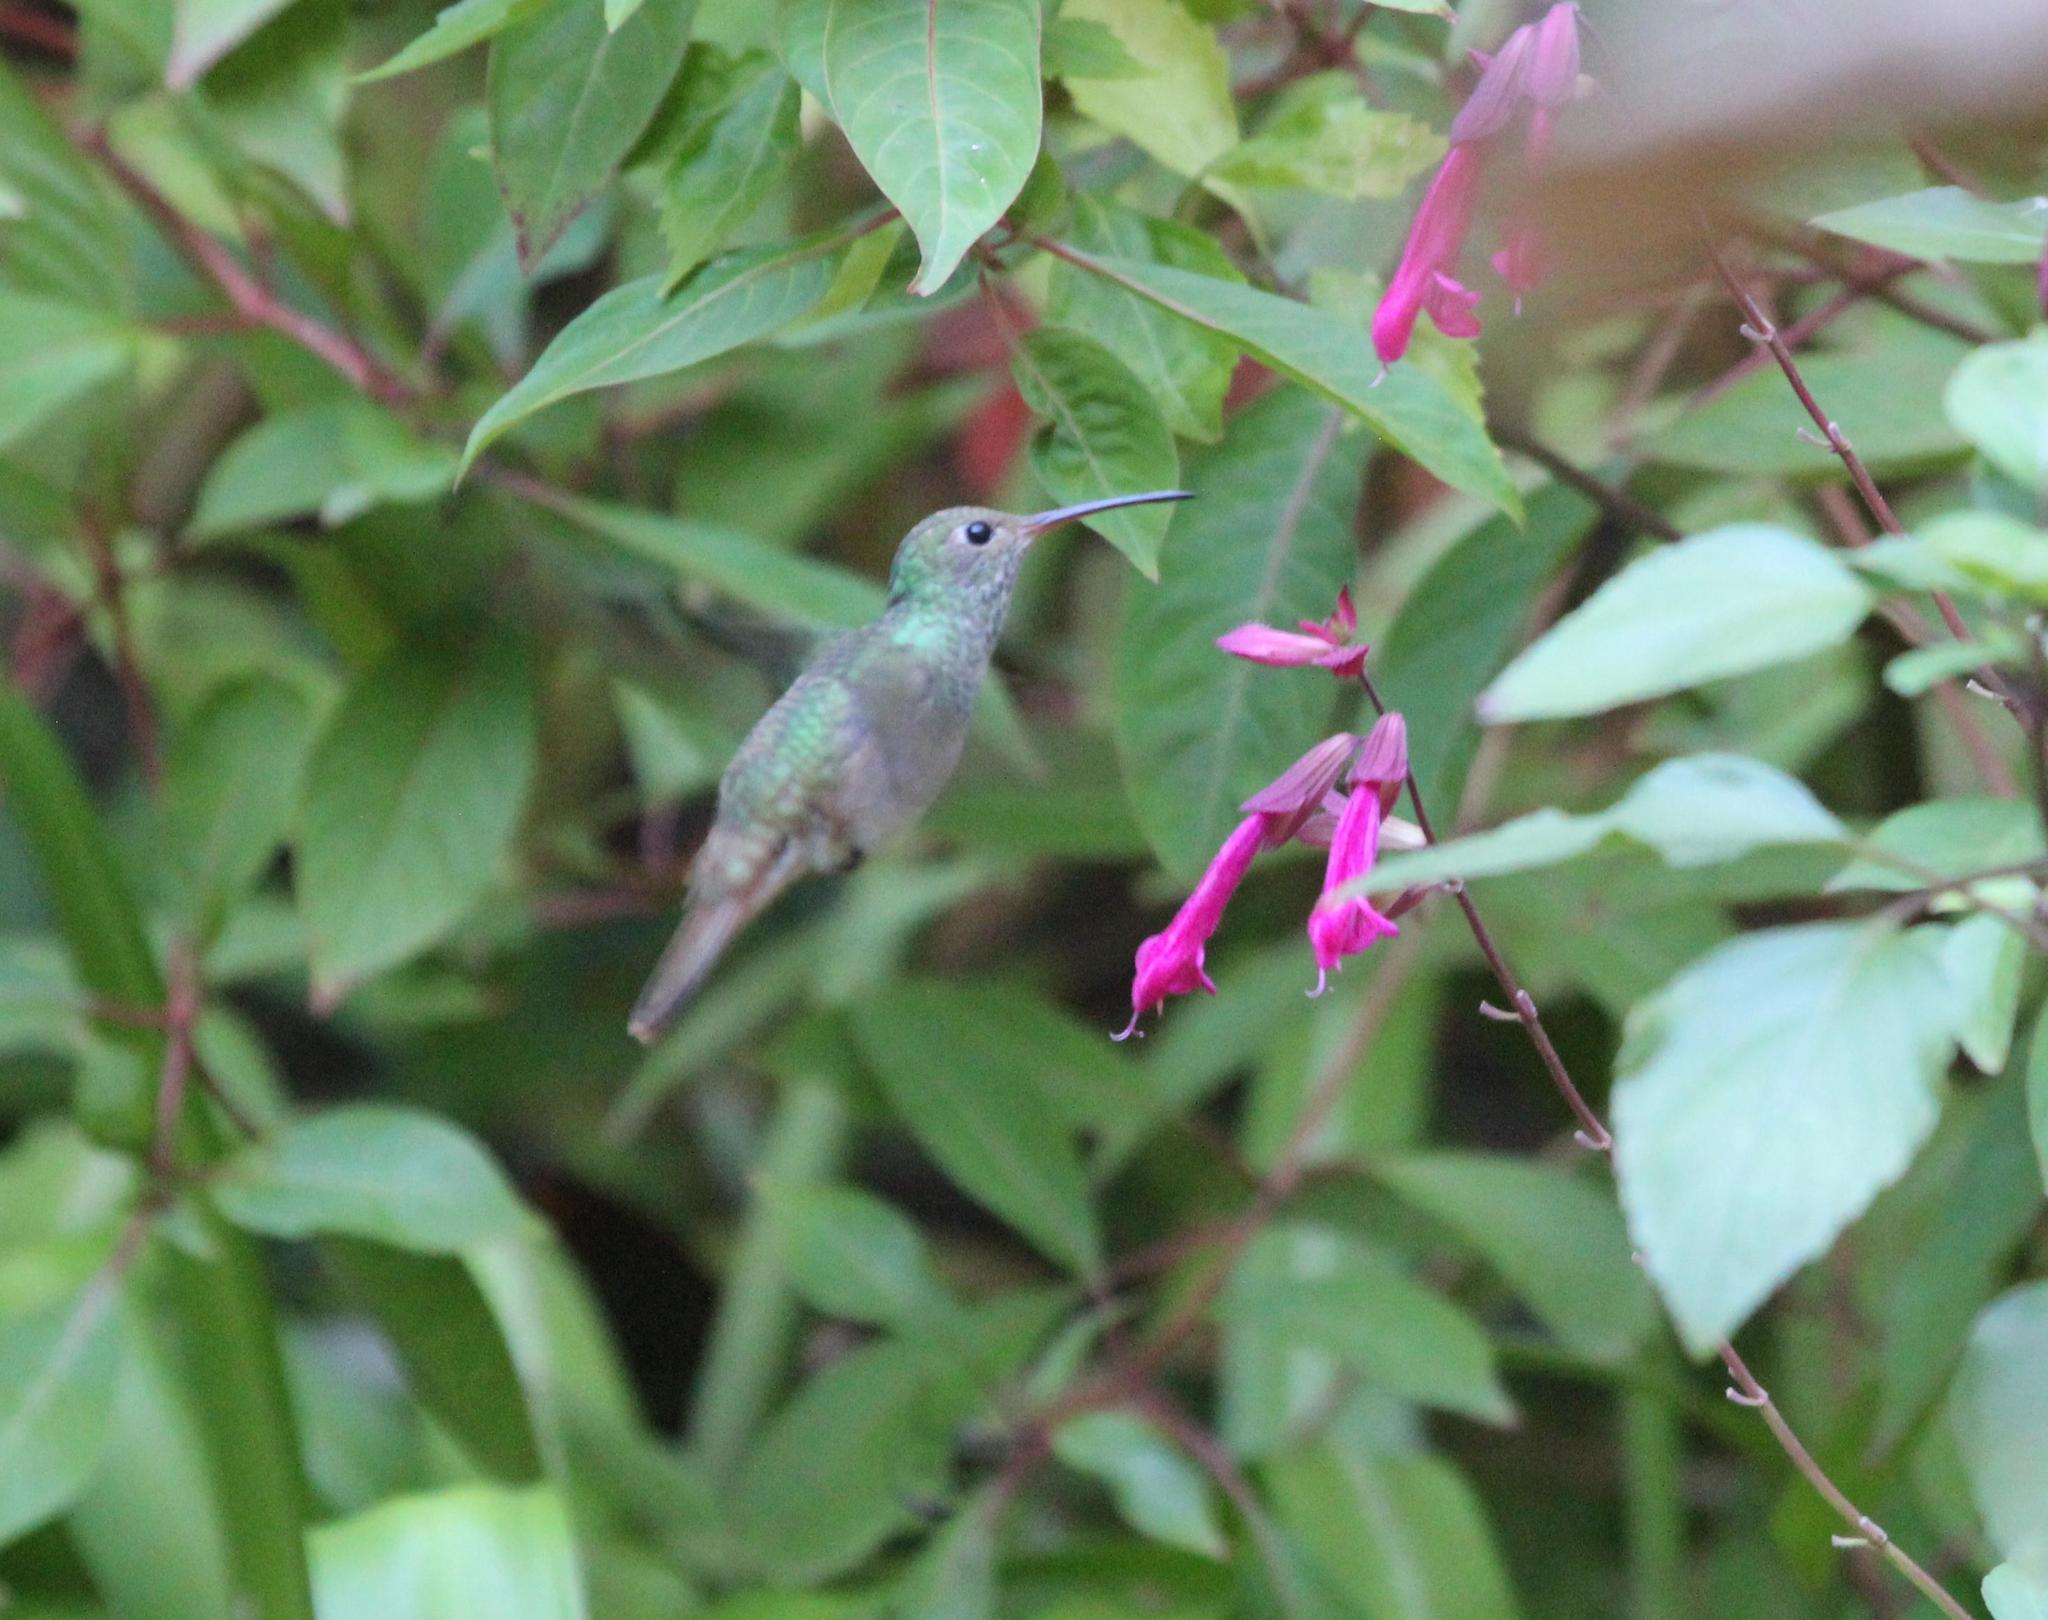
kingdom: Animalia
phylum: Chordata
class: Aves
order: Apodiformes
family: Trochilidae
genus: Amazilia
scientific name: Amazilia yucatanensis
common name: Buff-bellied hummingbird
